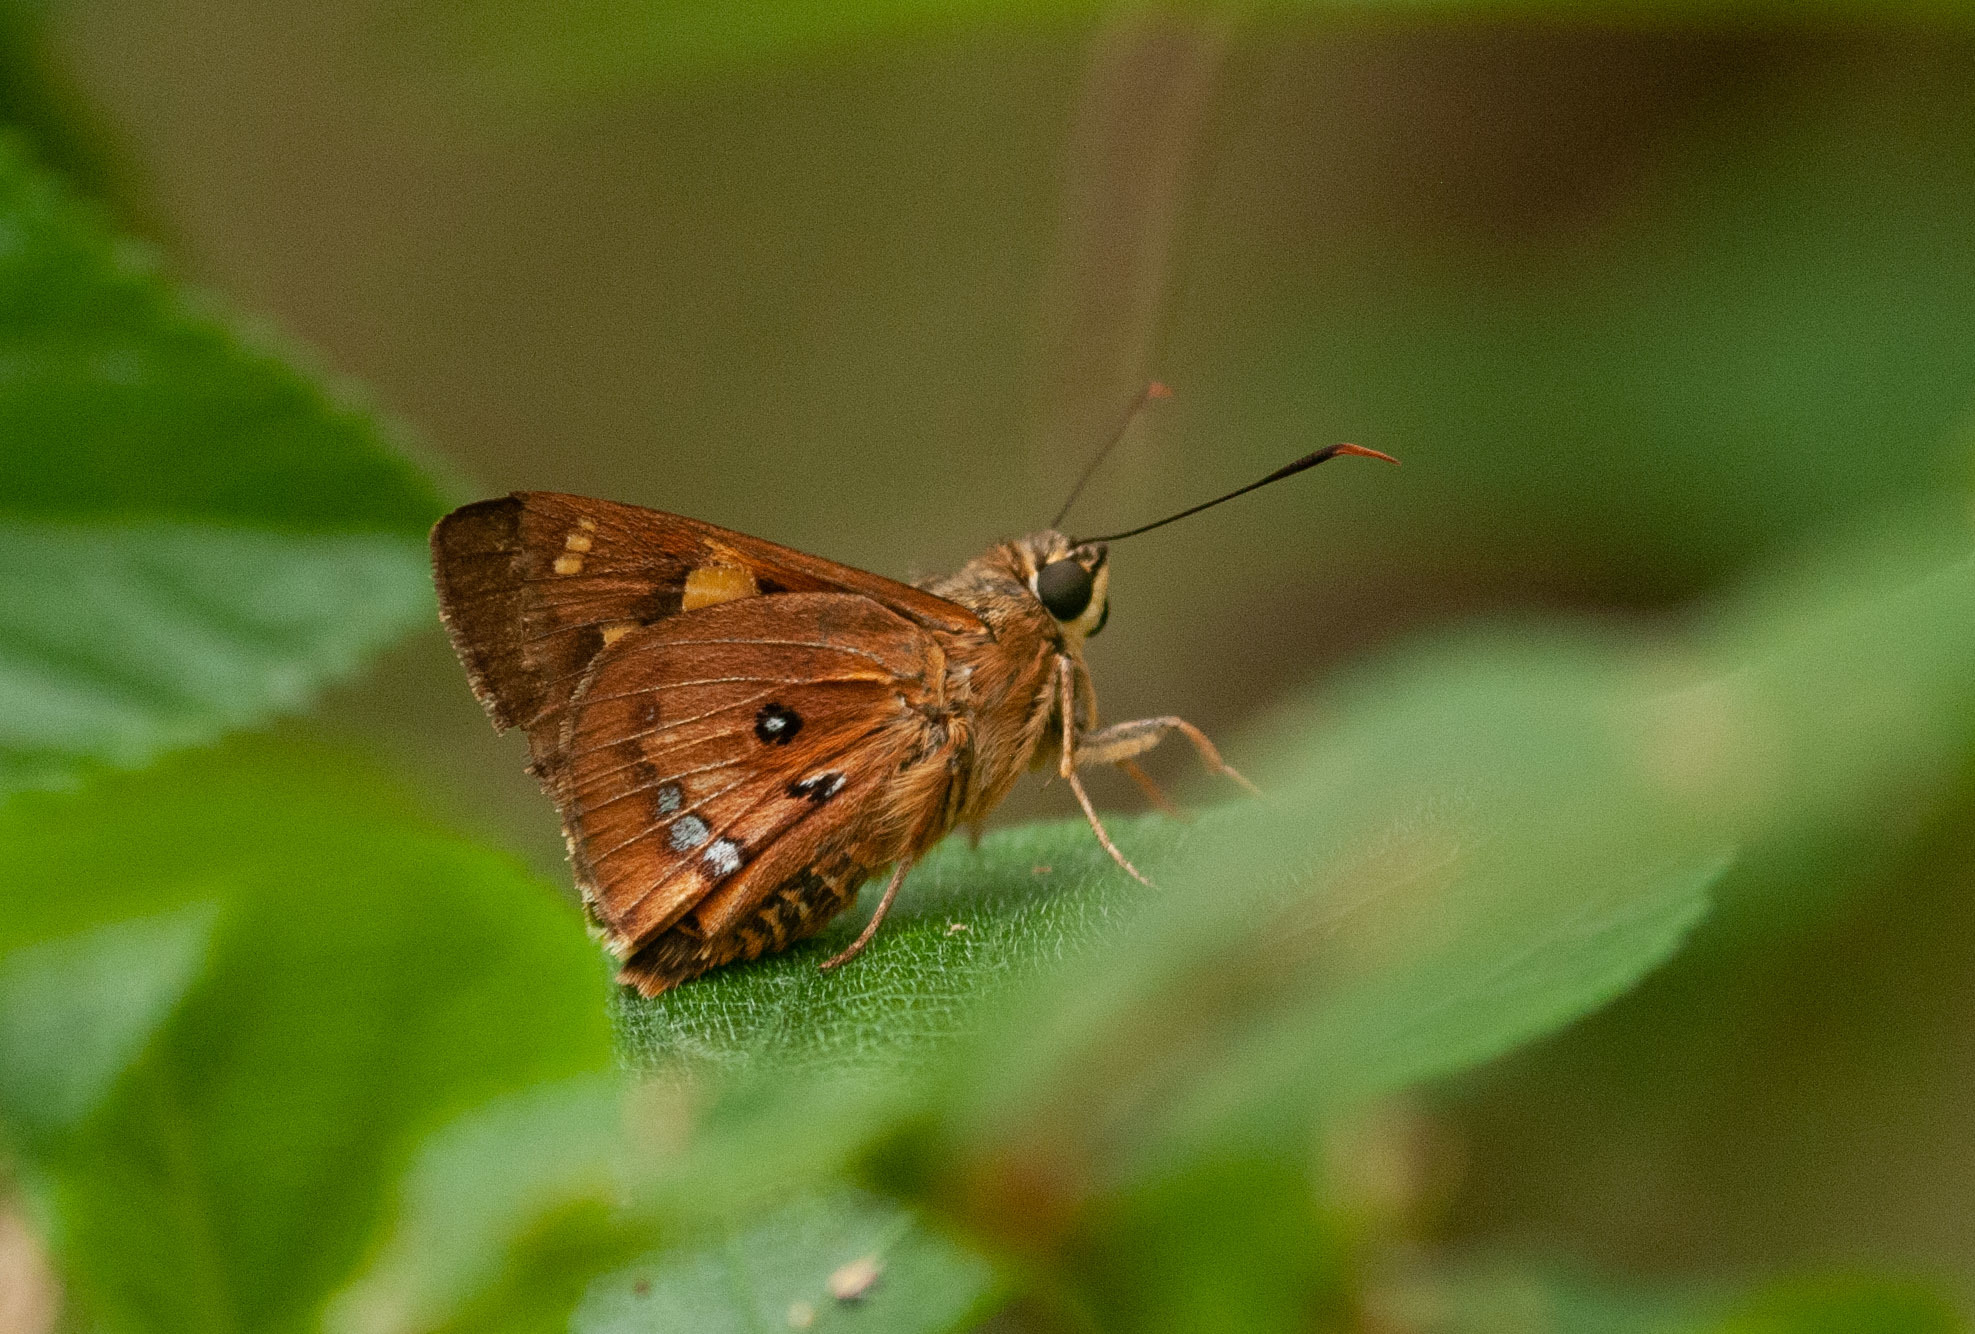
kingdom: Animalia
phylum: Arthropoda
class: Insecta
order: Lepidoptera
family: Hesperiidae
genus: Trapezites
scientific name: Trapezites symmomus
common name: Splendid ochre
